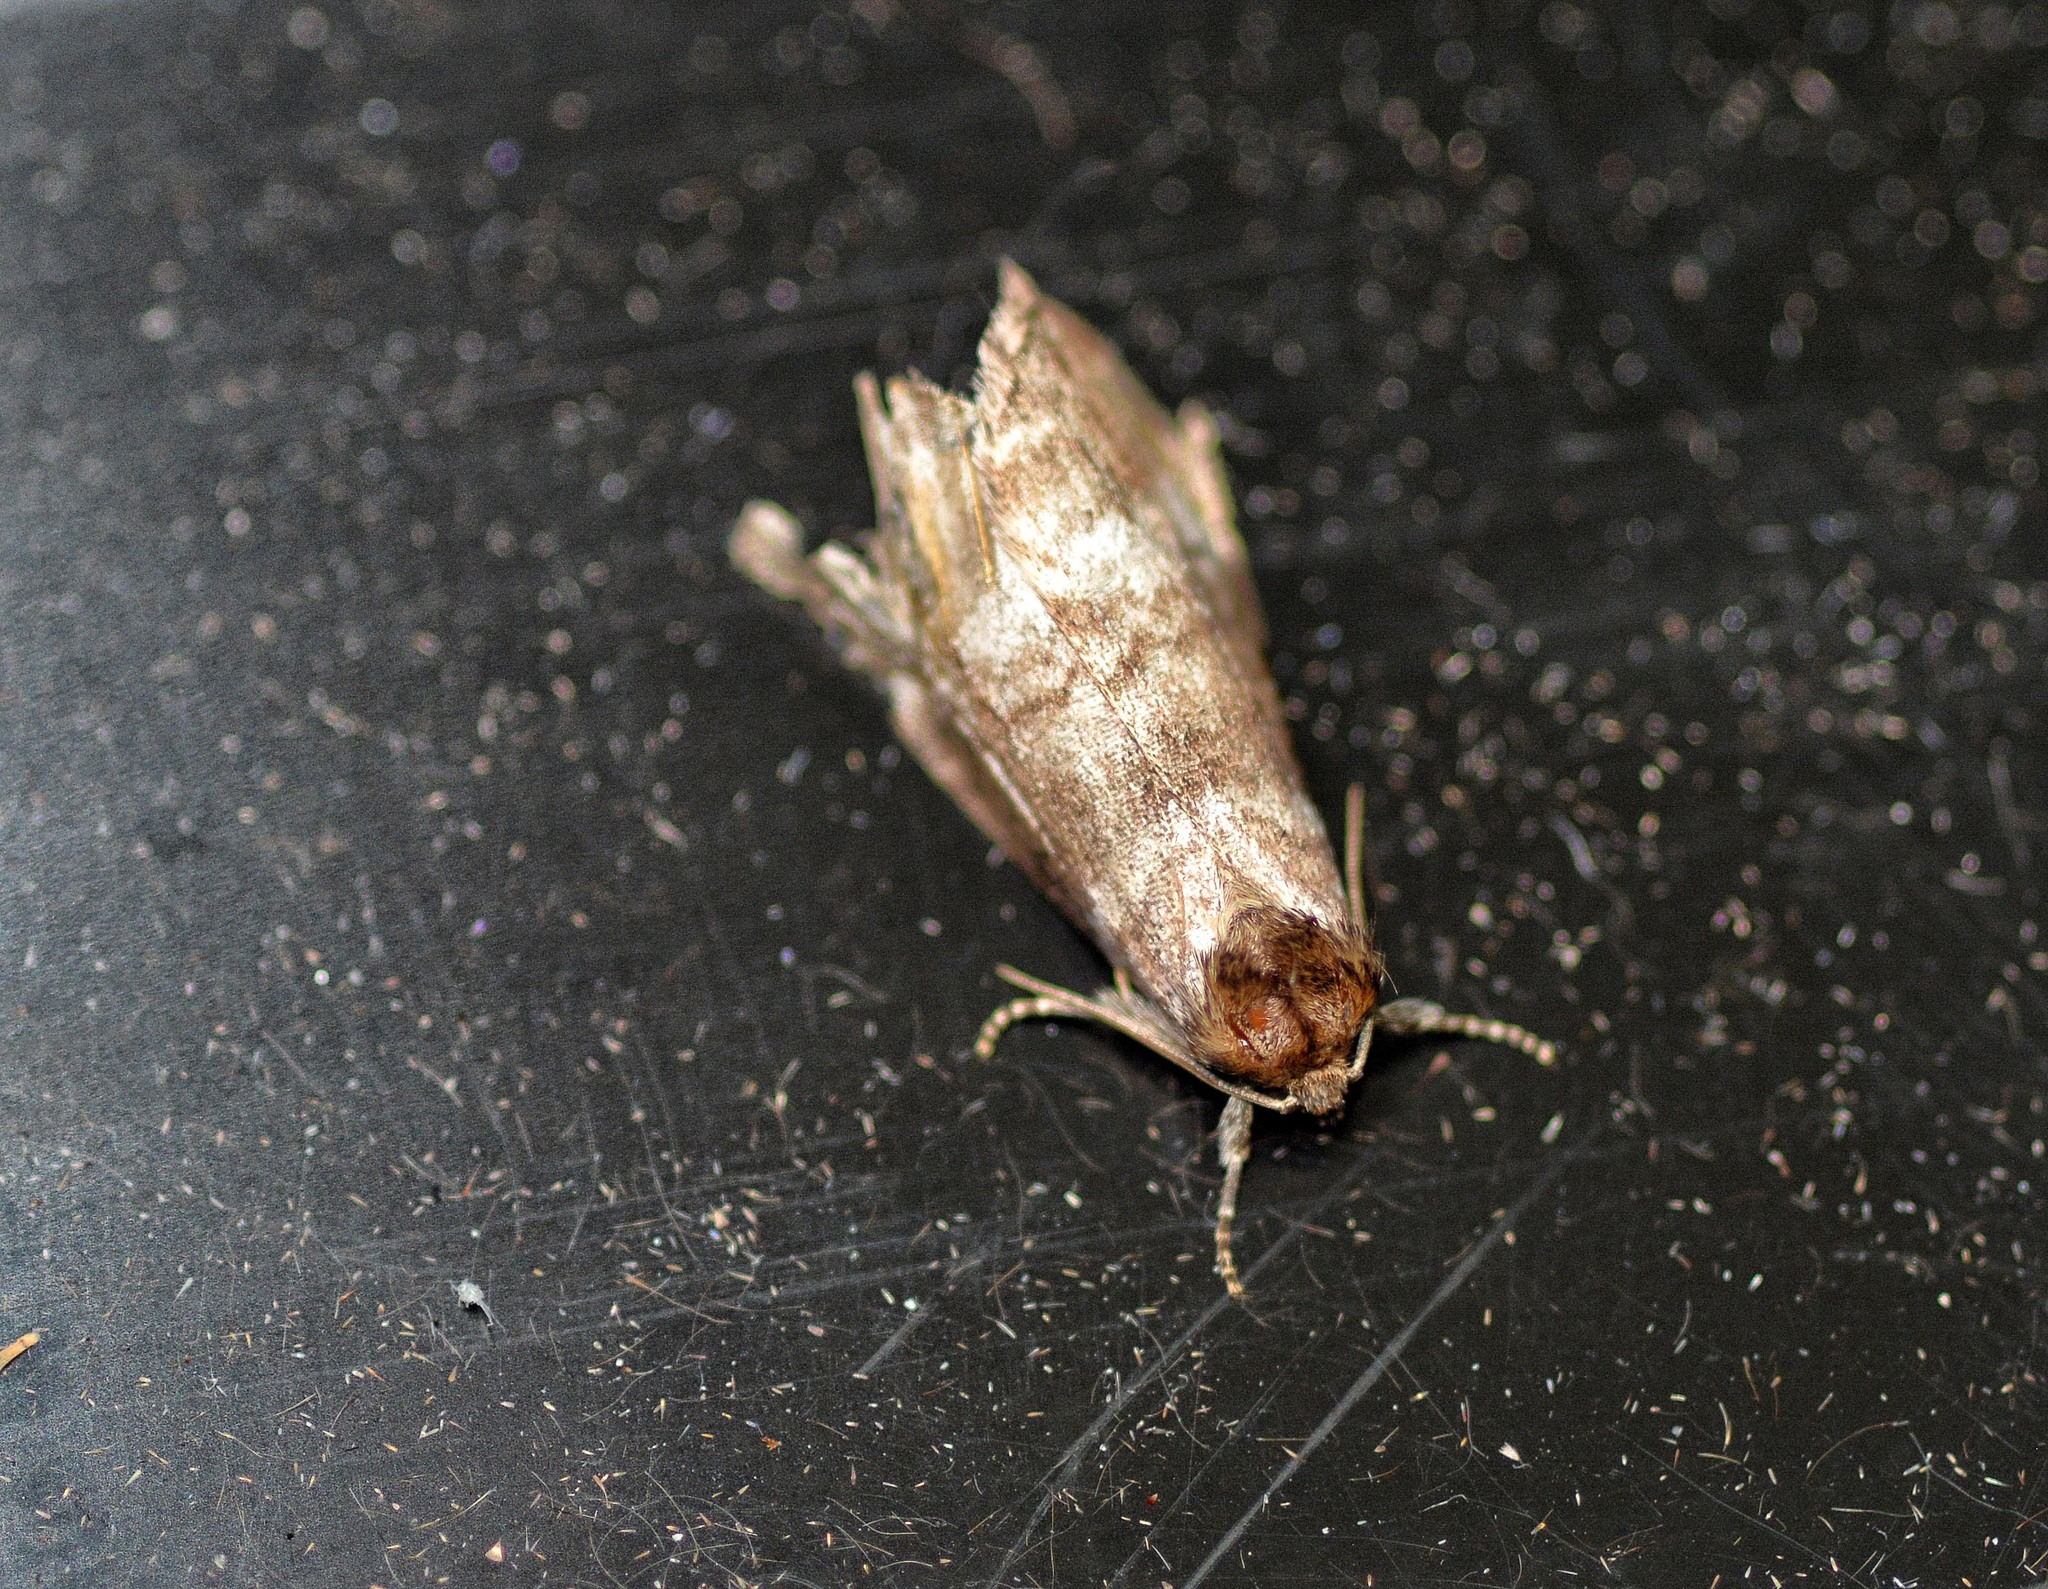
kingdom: Animalia
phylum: Arthropoda
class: Insecta
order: Lepidoptera
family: Drepanidae
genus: Tetheella
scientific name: Tetheella fluctuosa
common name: Satin lutestring
